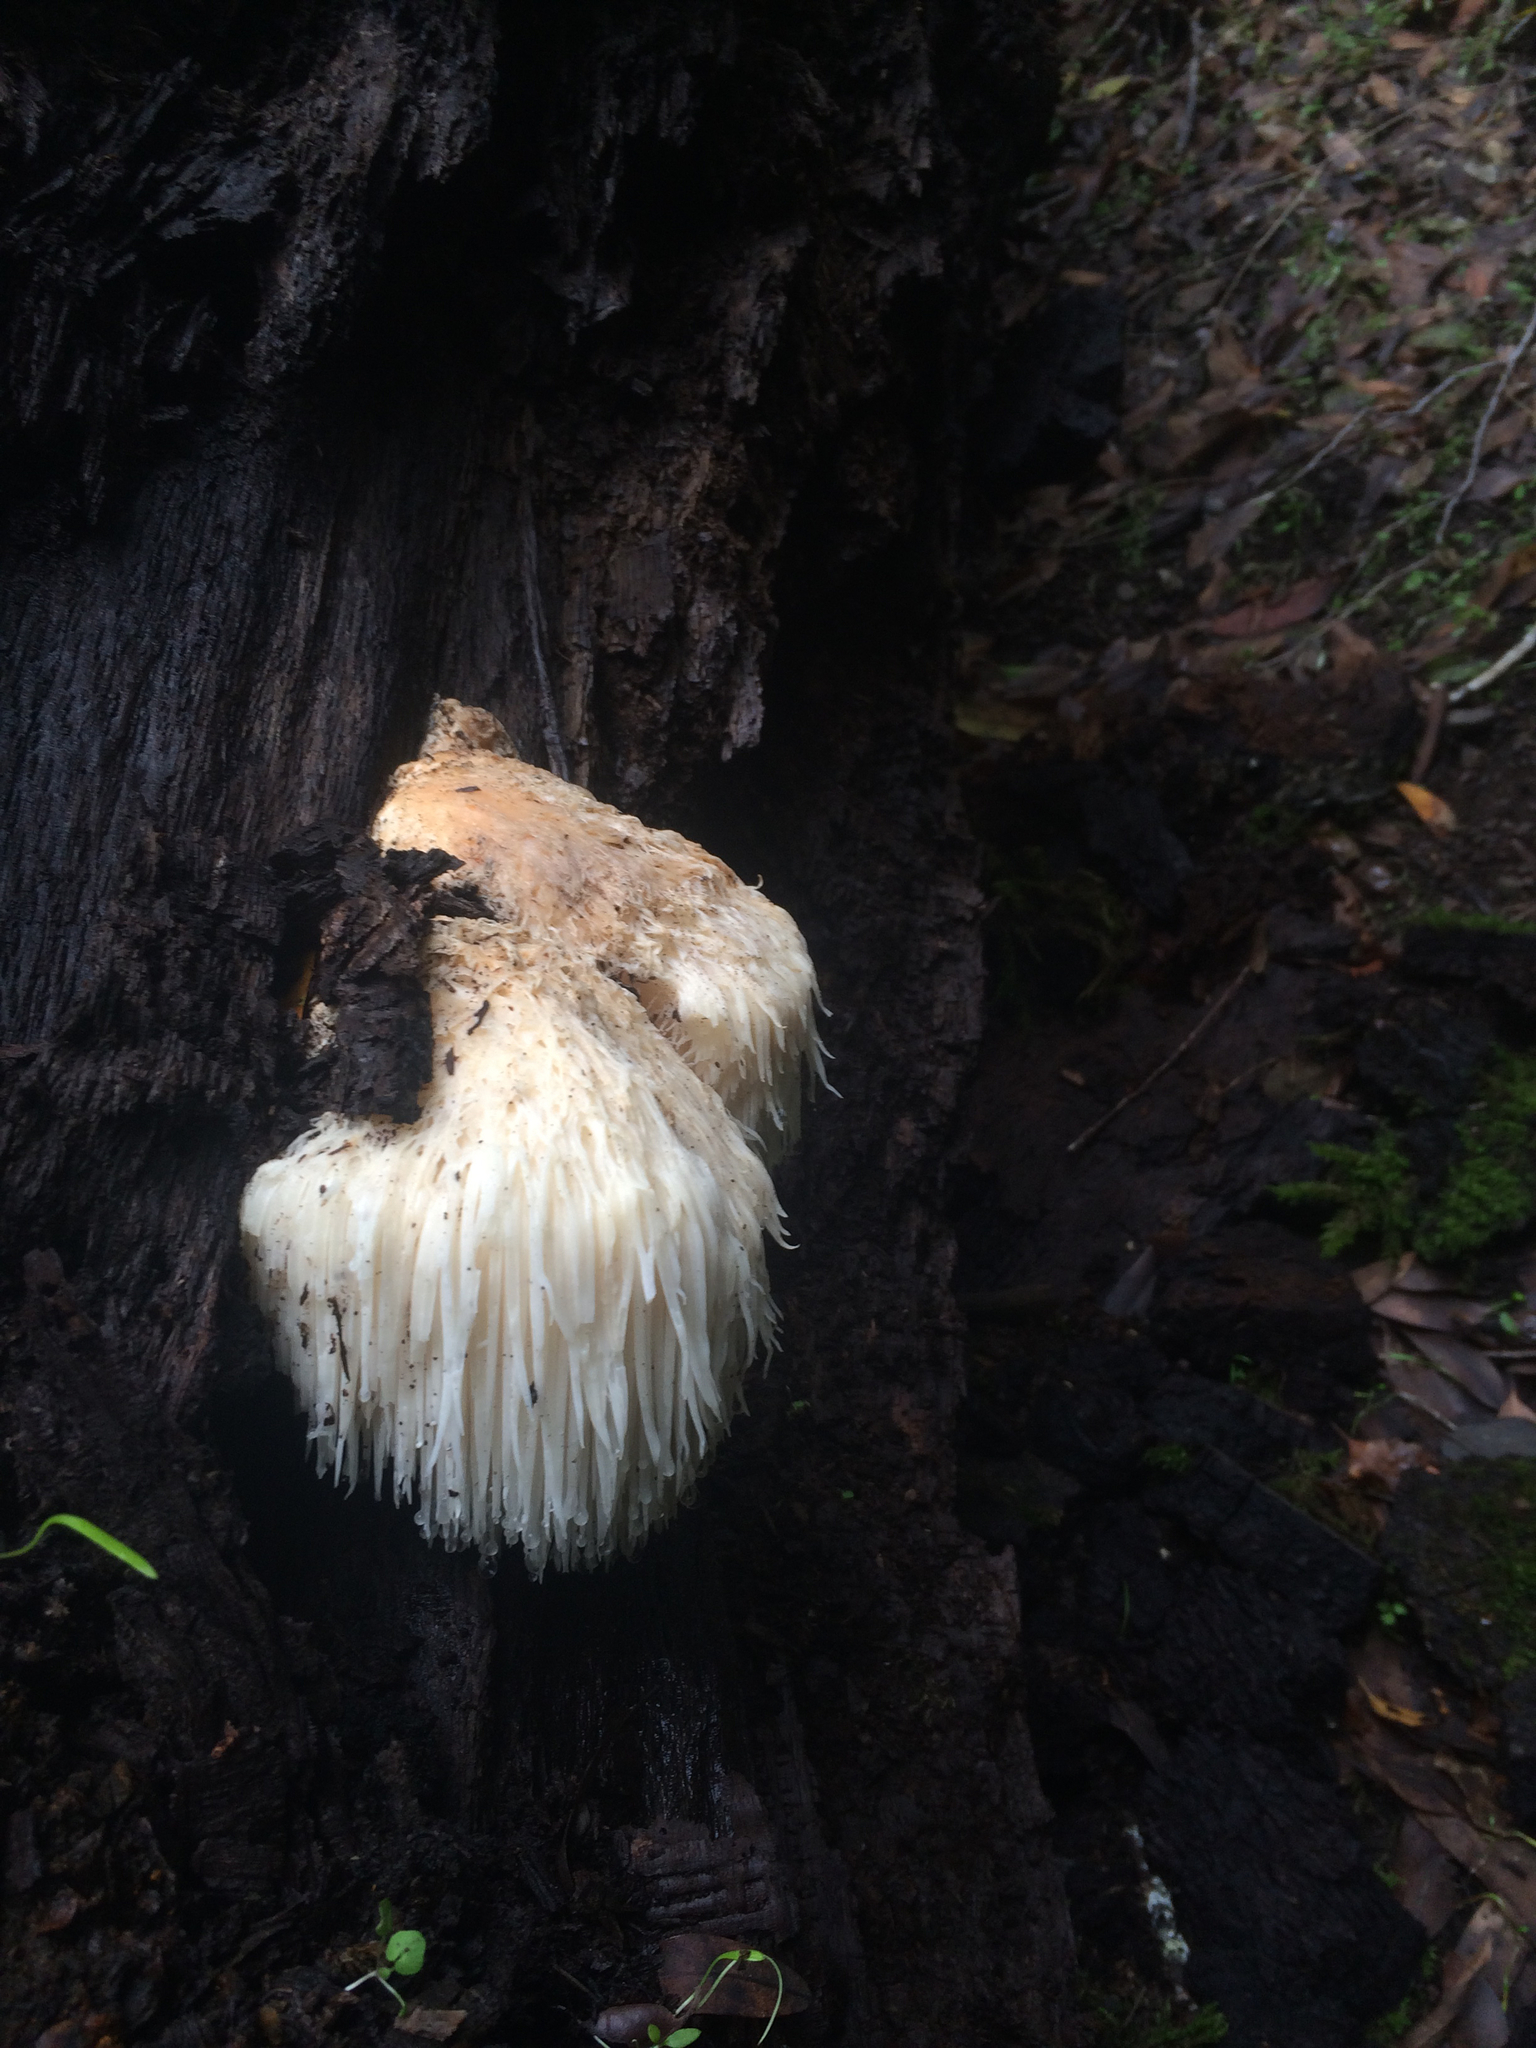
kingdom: Fungi
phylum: Basidiomycota
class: Agaricomycetes
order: Russulales
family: Hericiaceae
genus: Hericium
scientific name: Hericium erinaceus
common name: Bearded tooth
